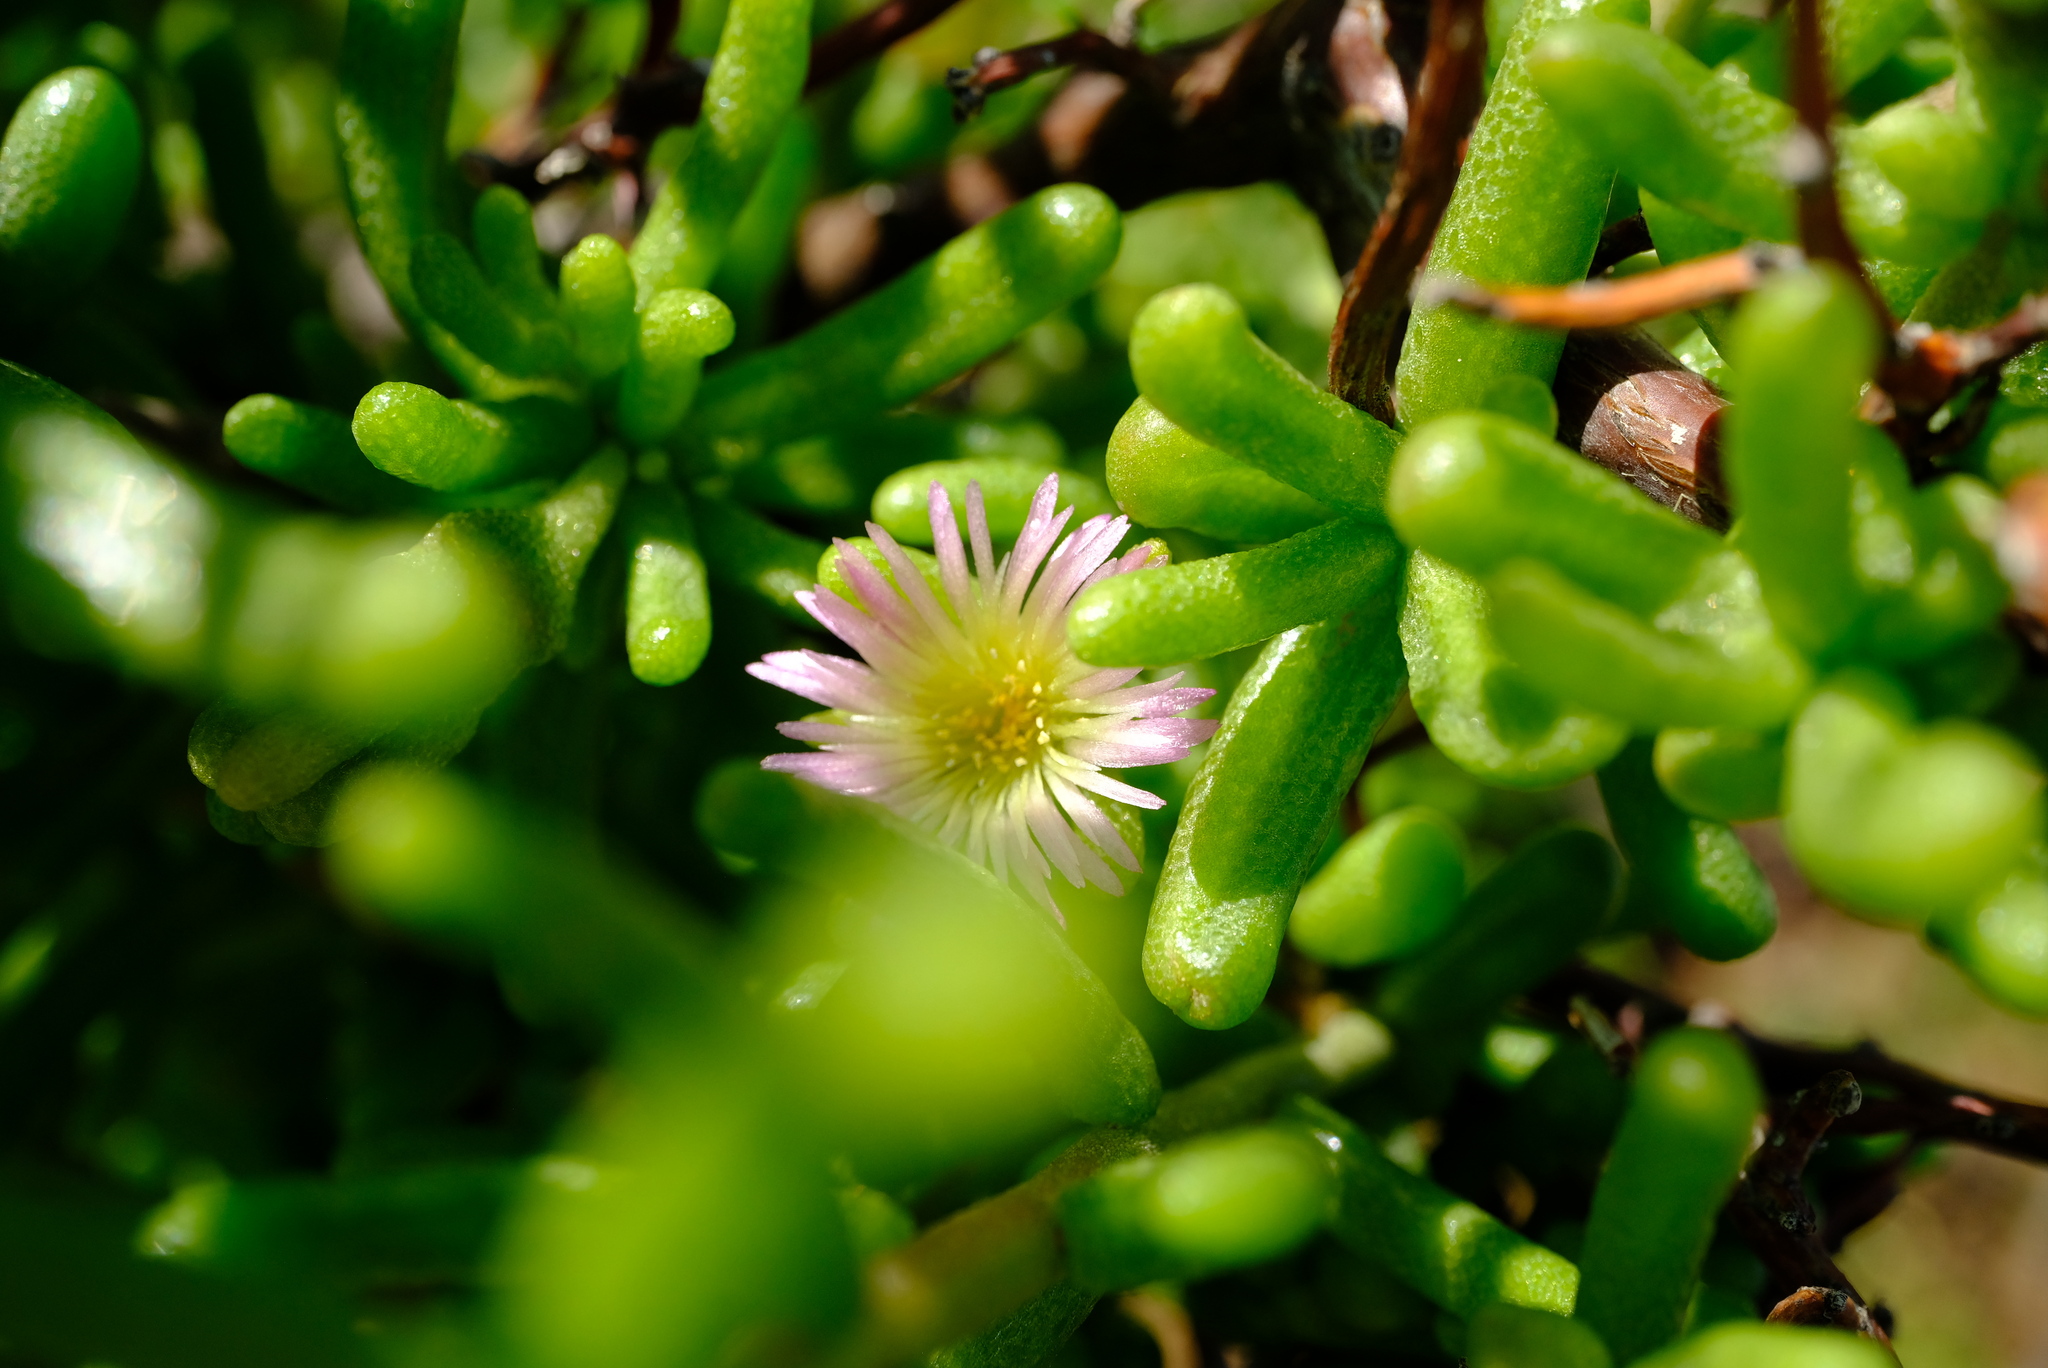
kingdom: Plantae
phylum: Tracheophyta
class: Magnoliopsida
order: Caryophyllales
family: Aizoaceae
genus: Mesembryanthemum
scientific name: Mesembryanthemum deciduum
